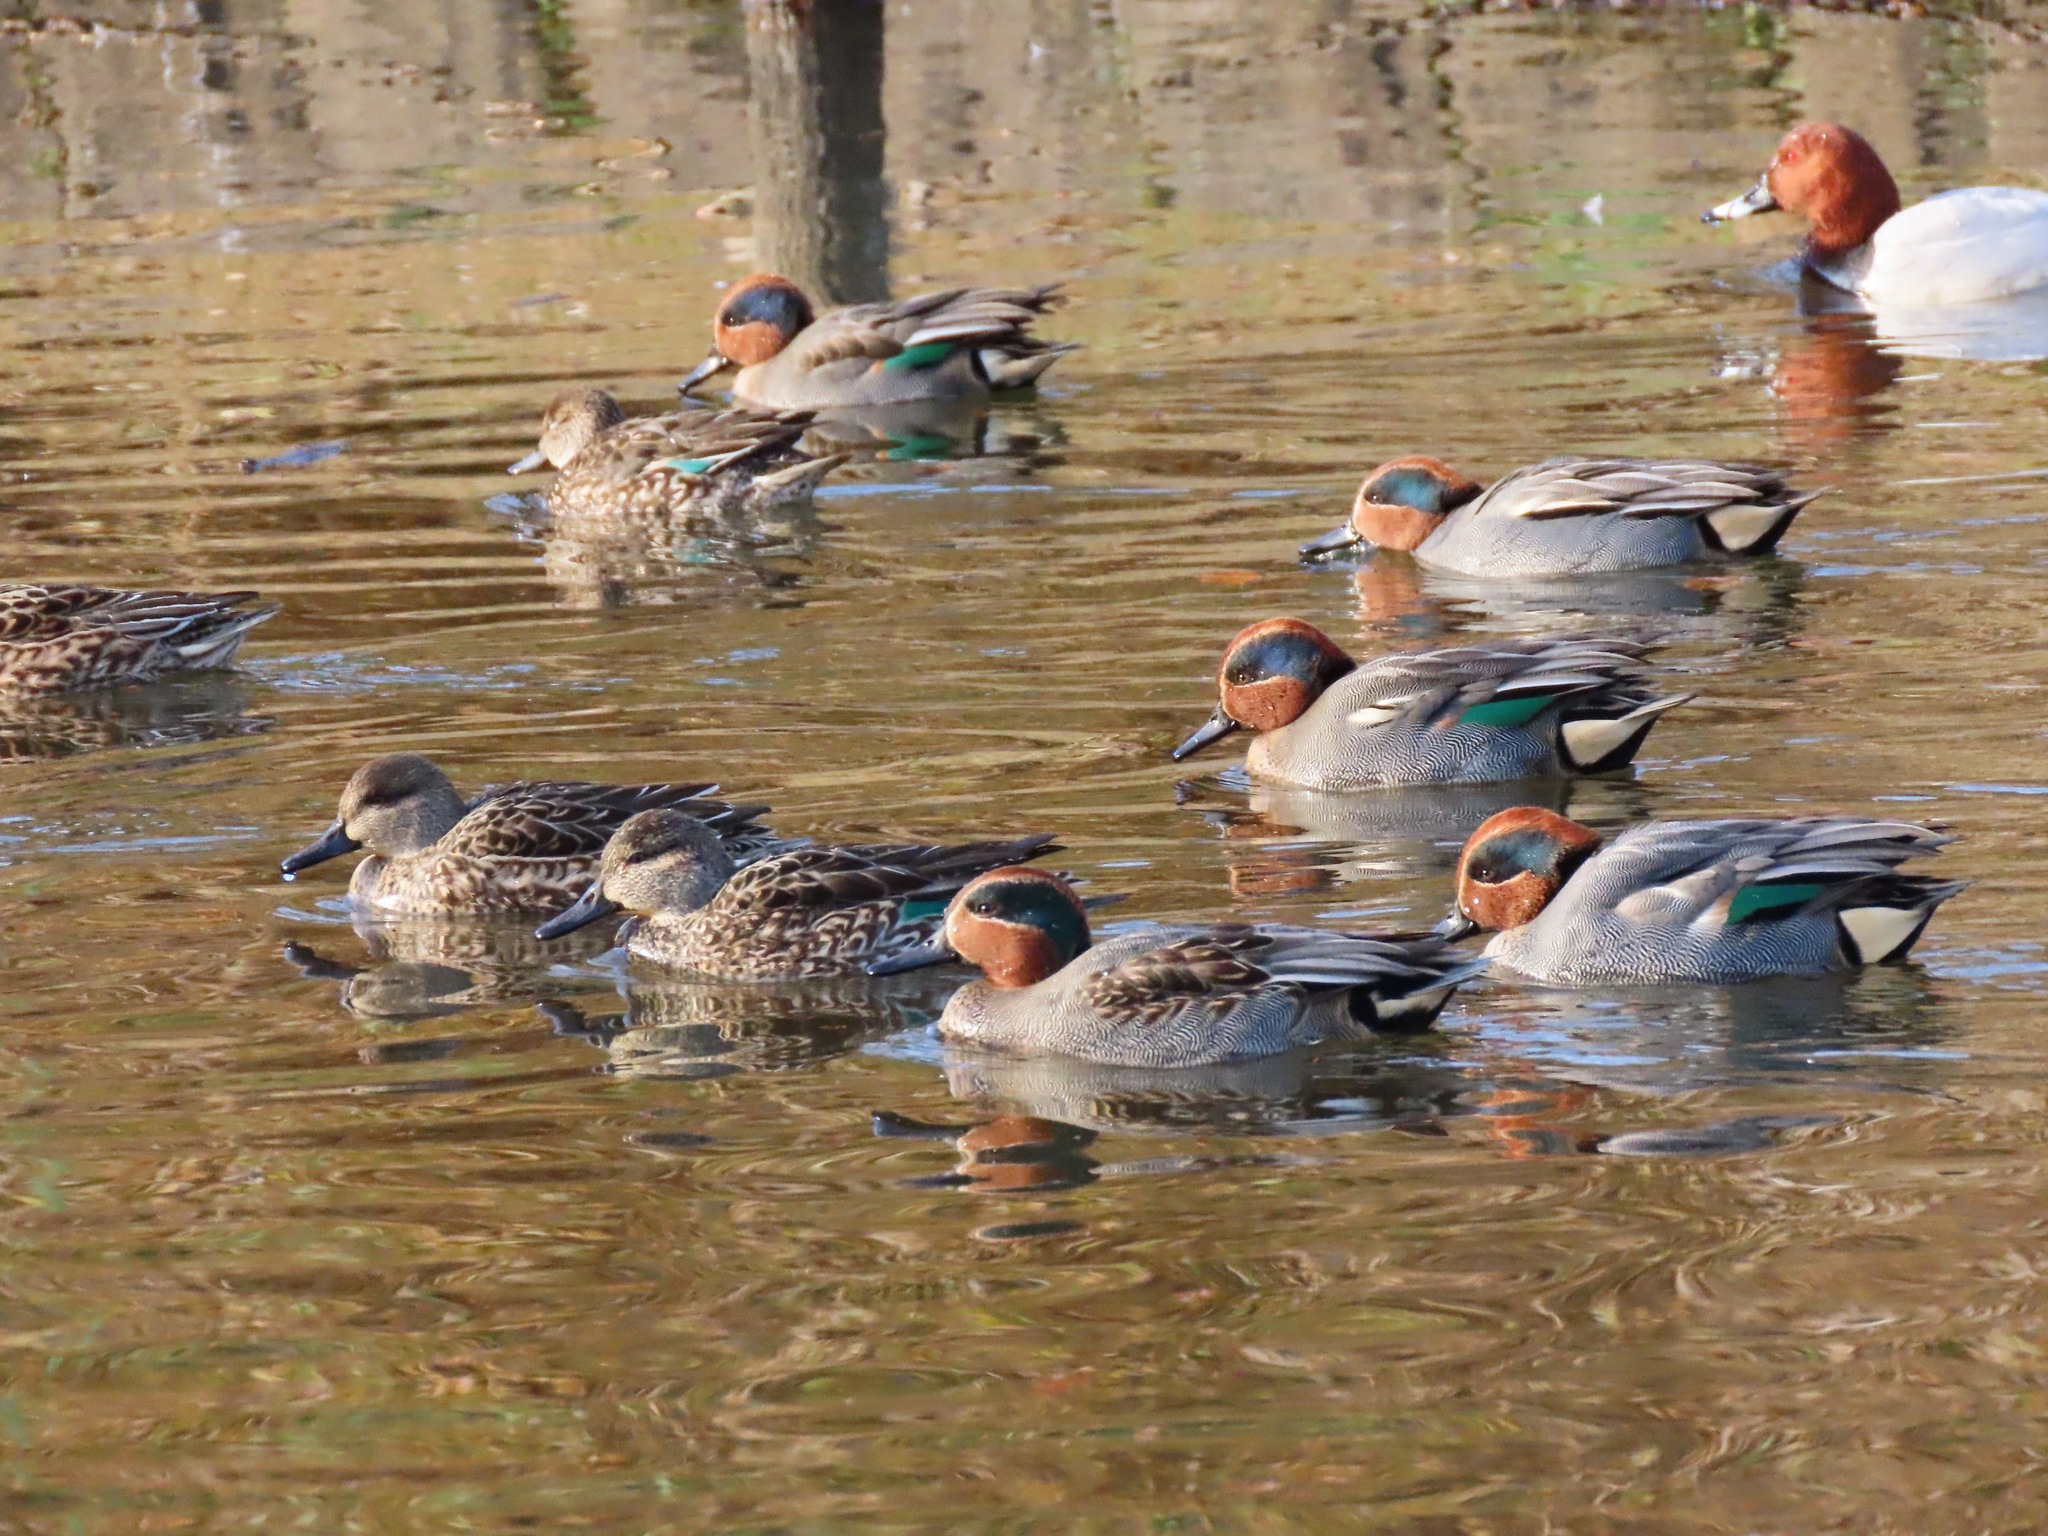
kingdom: Animalia
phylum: Chordata
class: Aves
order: Anseriformes
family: Anatidae
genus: Anas
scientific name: Anas crecca
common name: Eurasian teal
